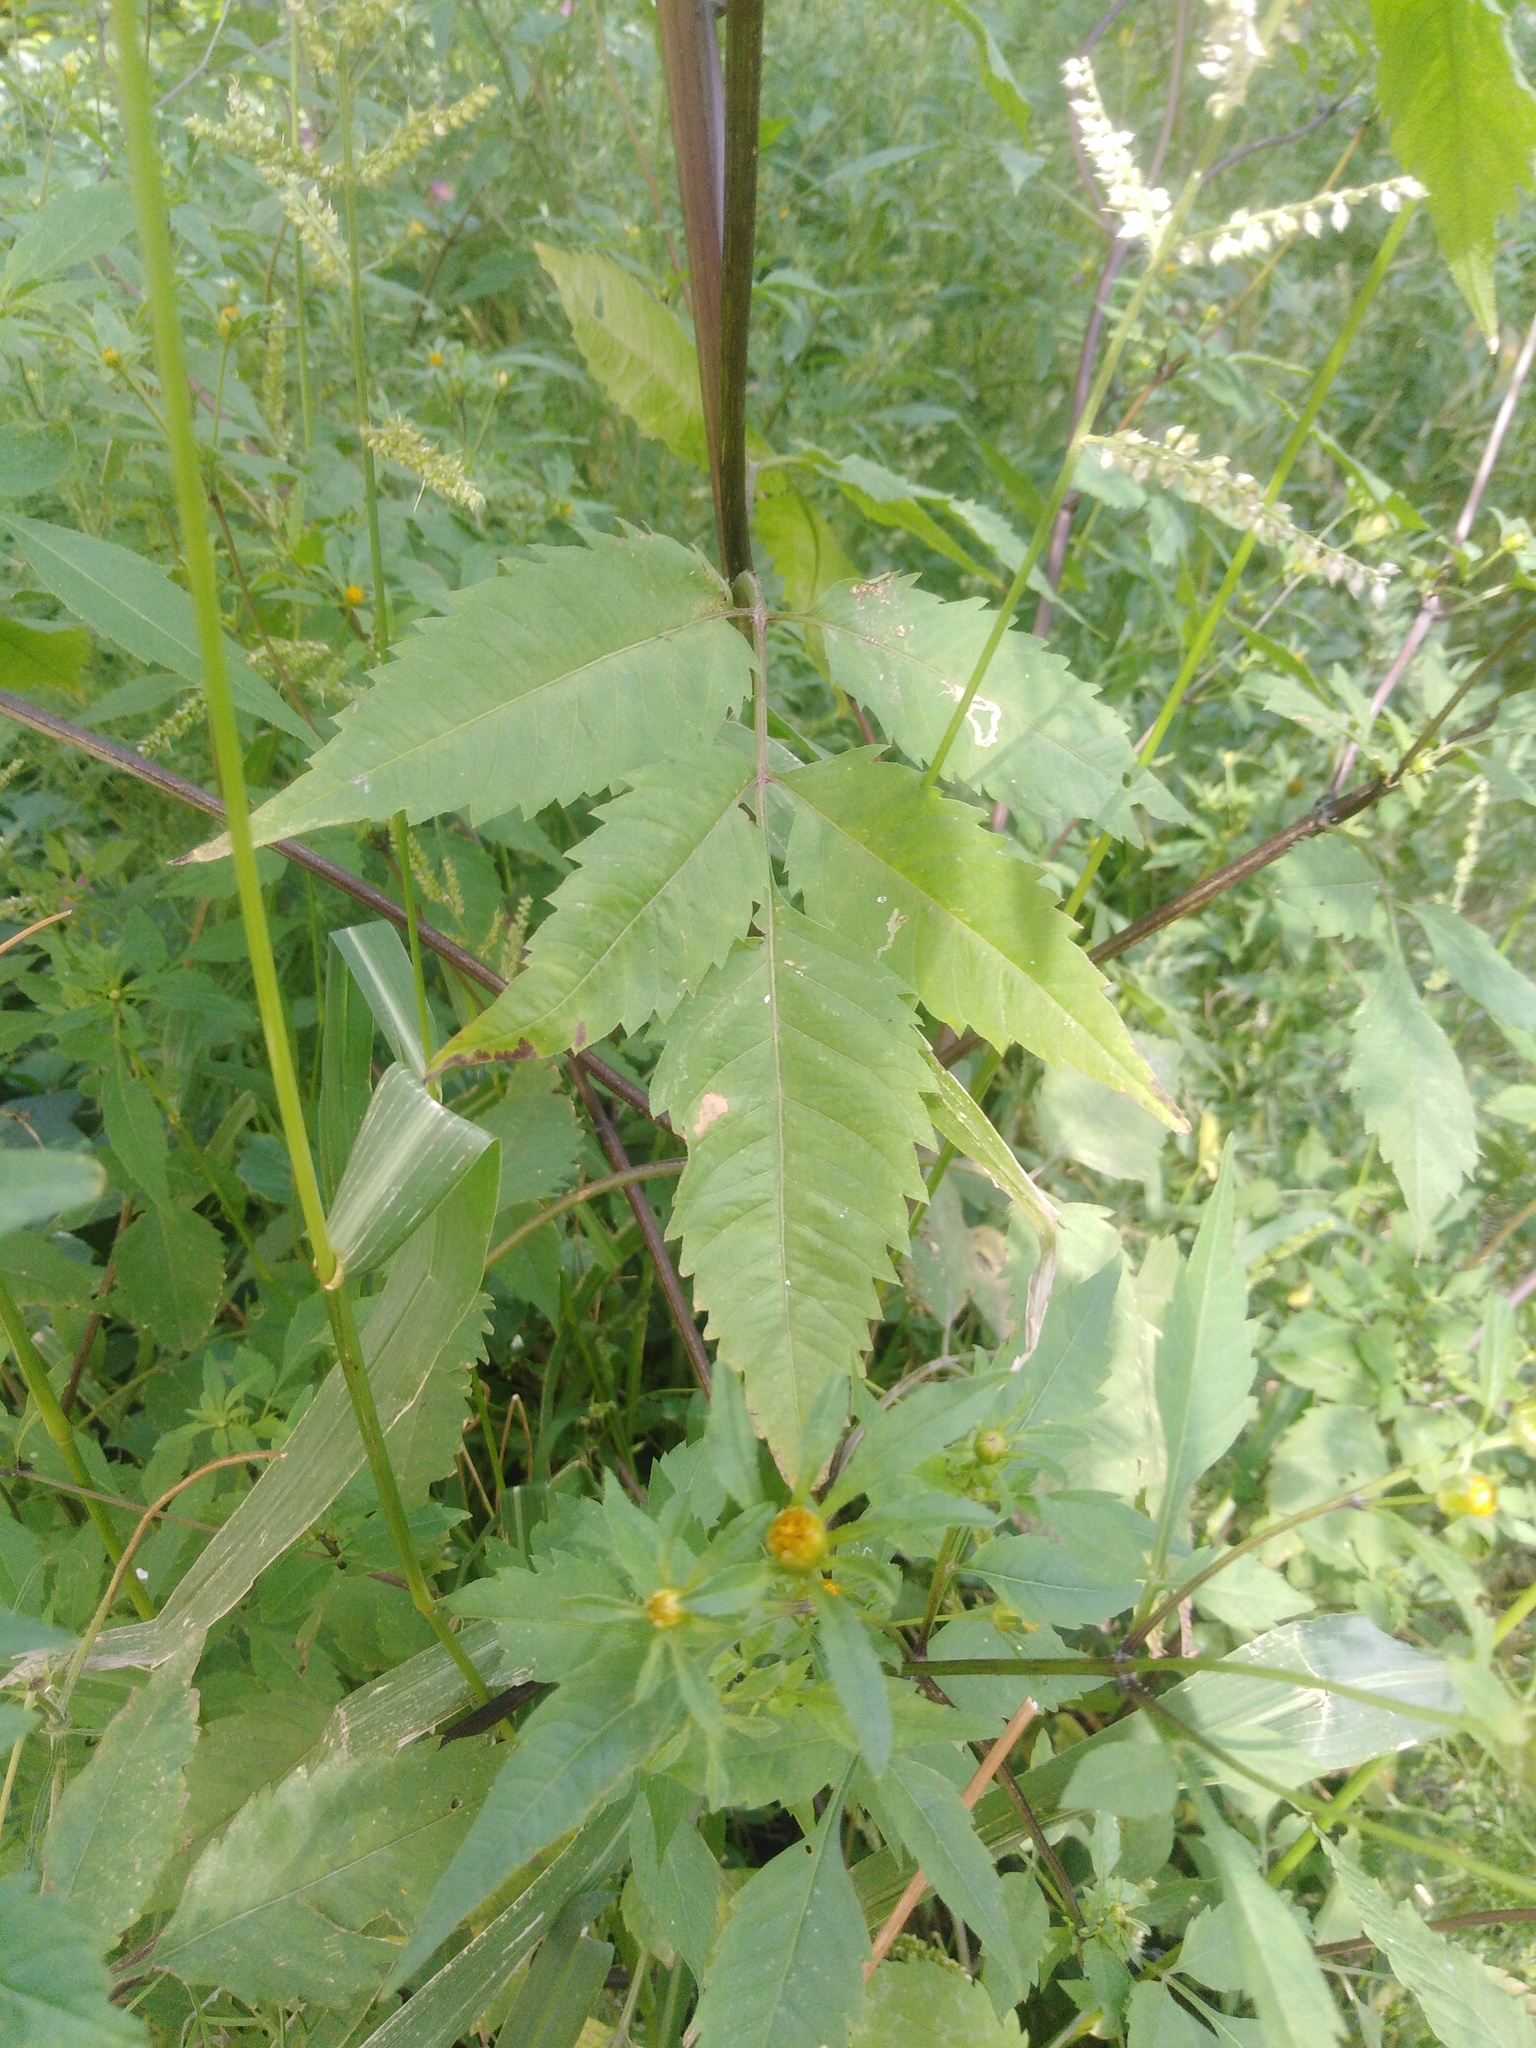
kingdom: Plantae
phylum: Tracheophyta
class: Magnoliopsida
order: Asterales
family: Asteraceae
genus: Bidens
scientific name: Bidens frondosa
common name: Beggarticks
